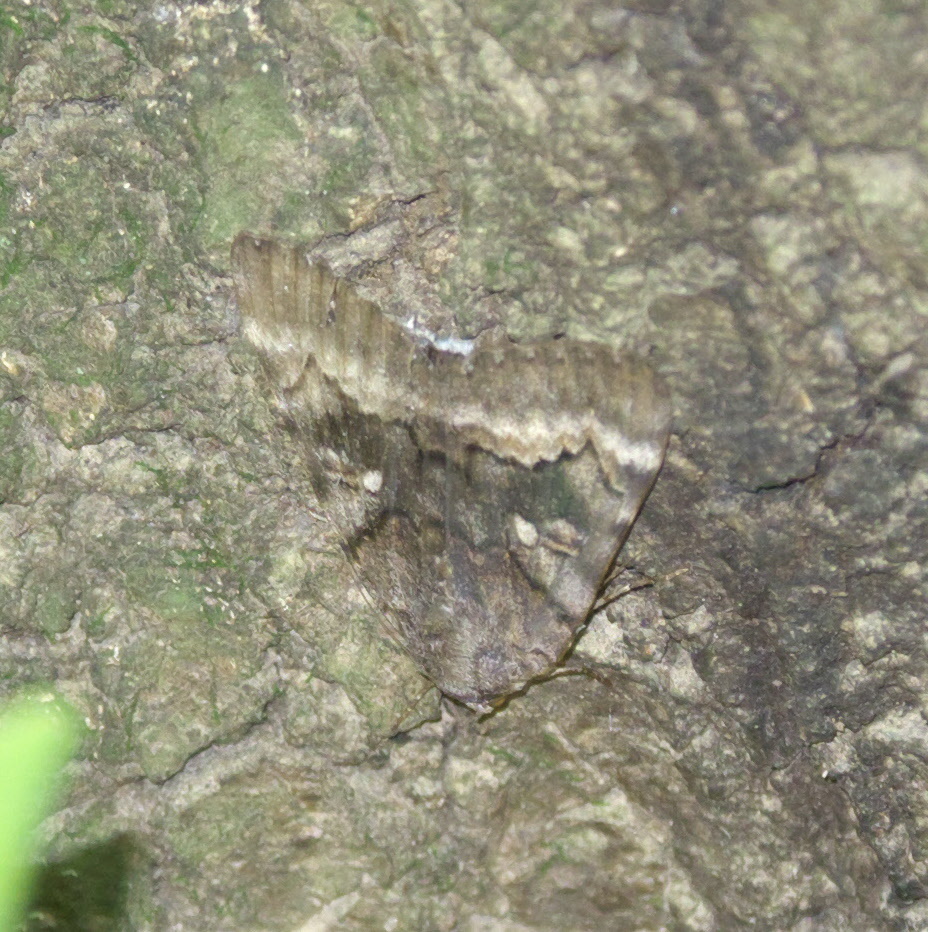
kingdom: Animalia
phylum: Arthropoda
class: Insecta
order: Lepidoptera
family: Erebidae
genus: Catocala
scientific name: Catocala epione
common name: Epione underwing
